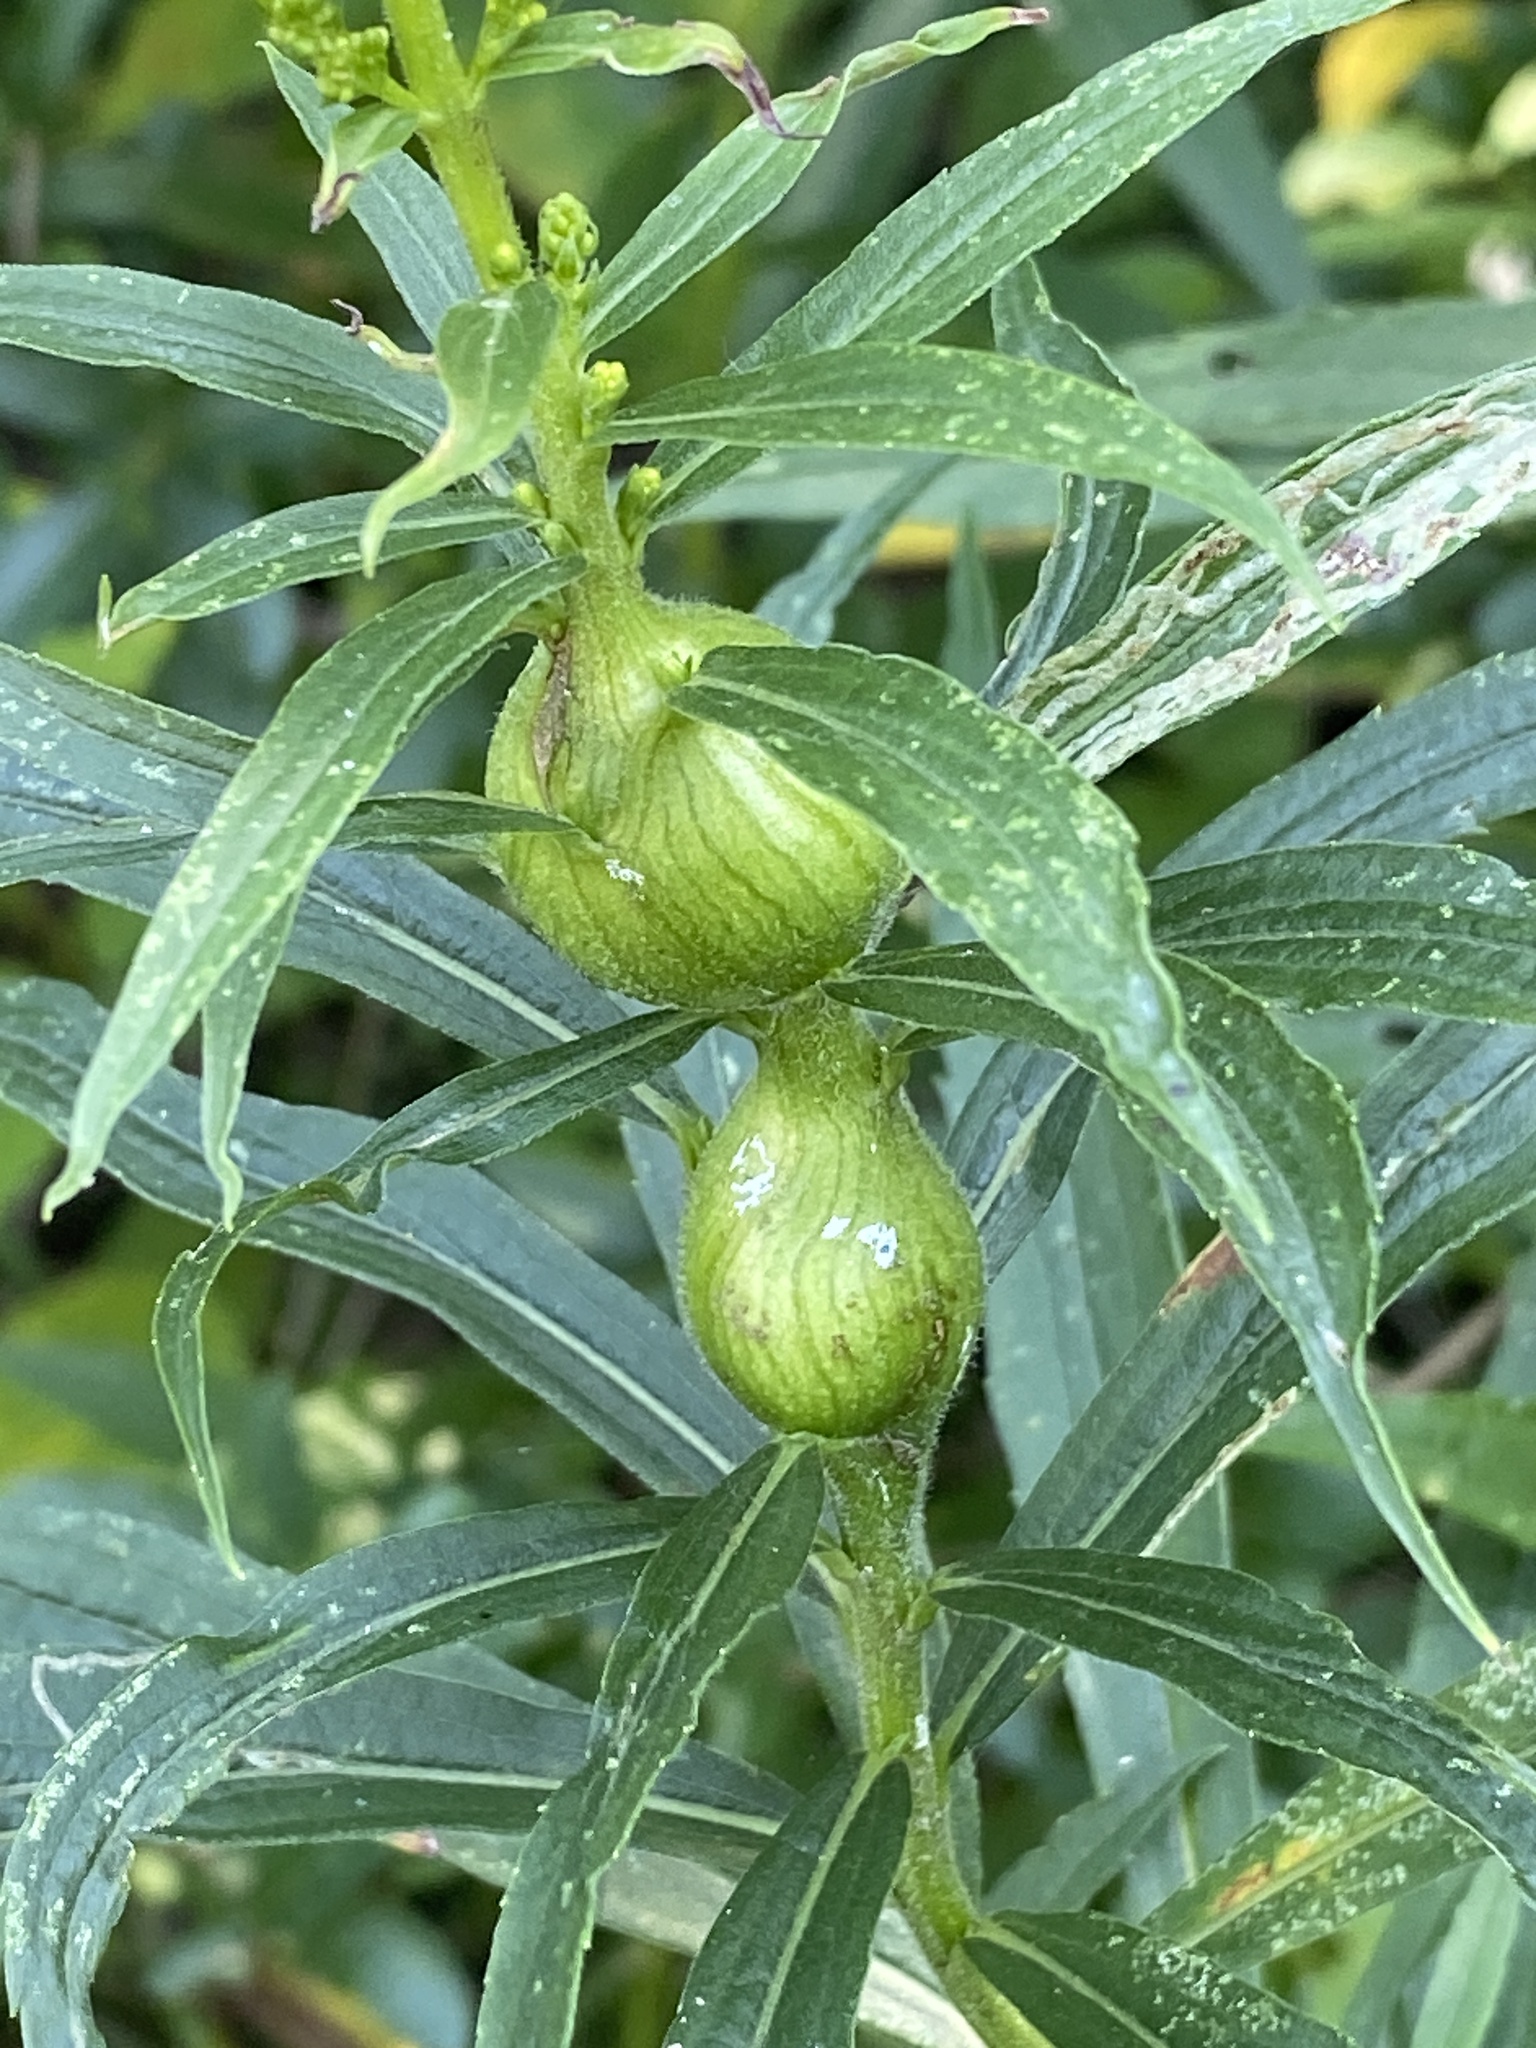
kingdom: Animalia
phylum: Arthropoda
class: Insecta
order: Diptera
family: Tephritidae
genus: Eurosta
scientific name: Eurosta solidaginis
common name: Goldenrod gall fly
